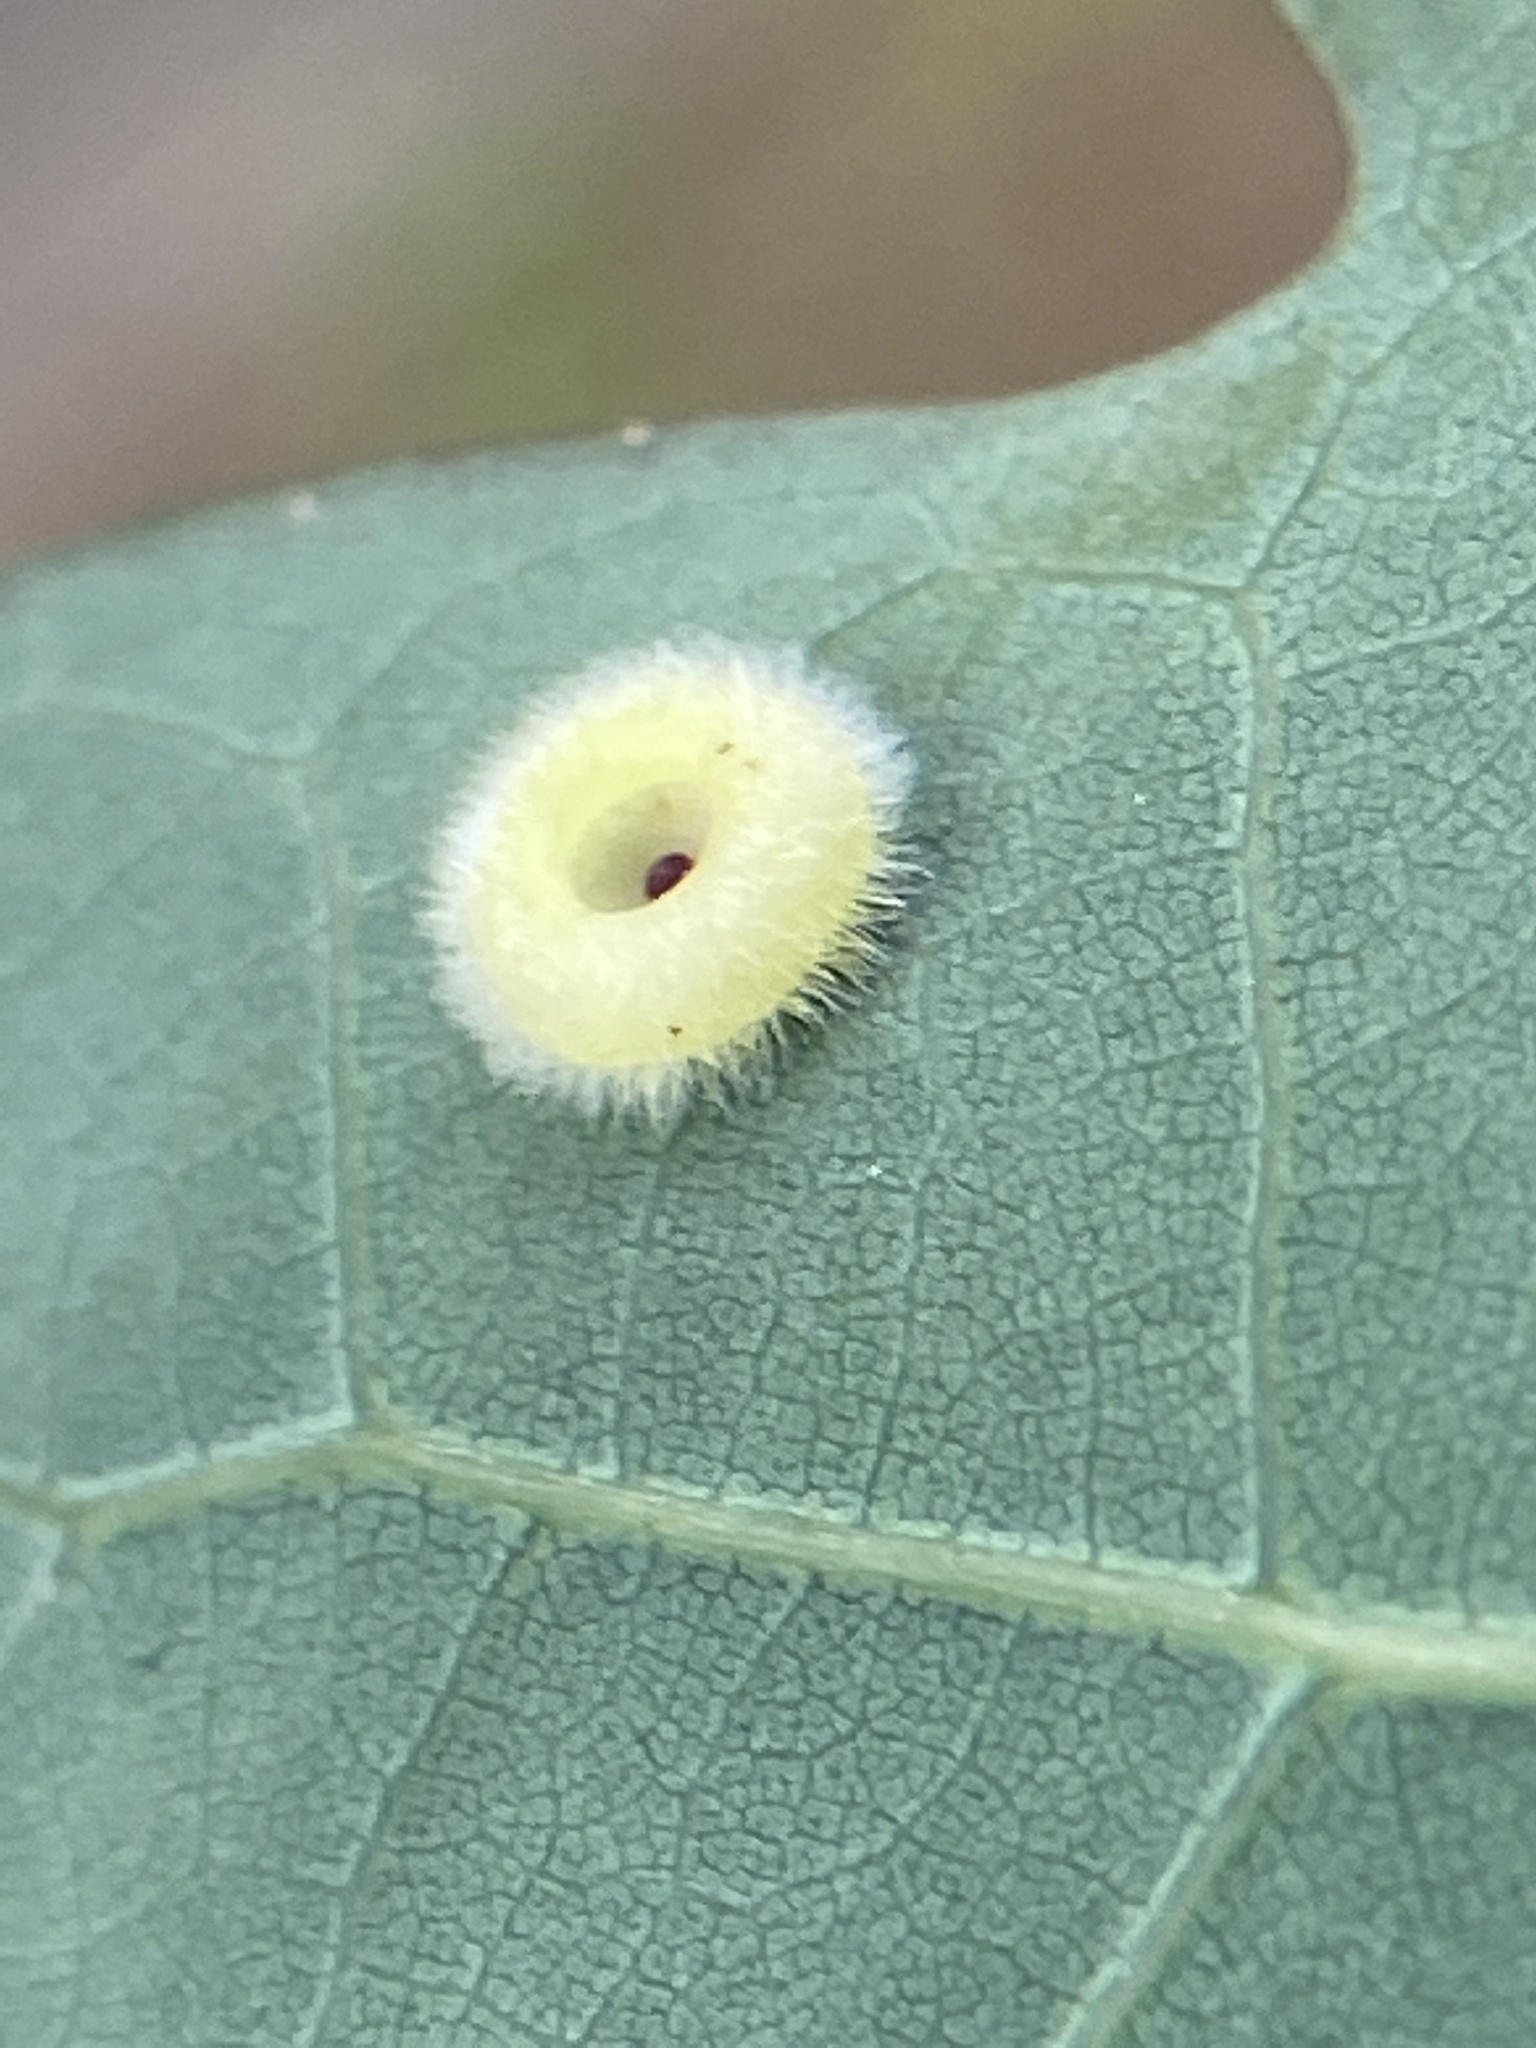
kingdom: Animalia
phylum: Arthropoda
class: Insecta
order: Hymenoptera
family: Cynipidae
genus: Neuroterus
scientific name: Neuroterus
